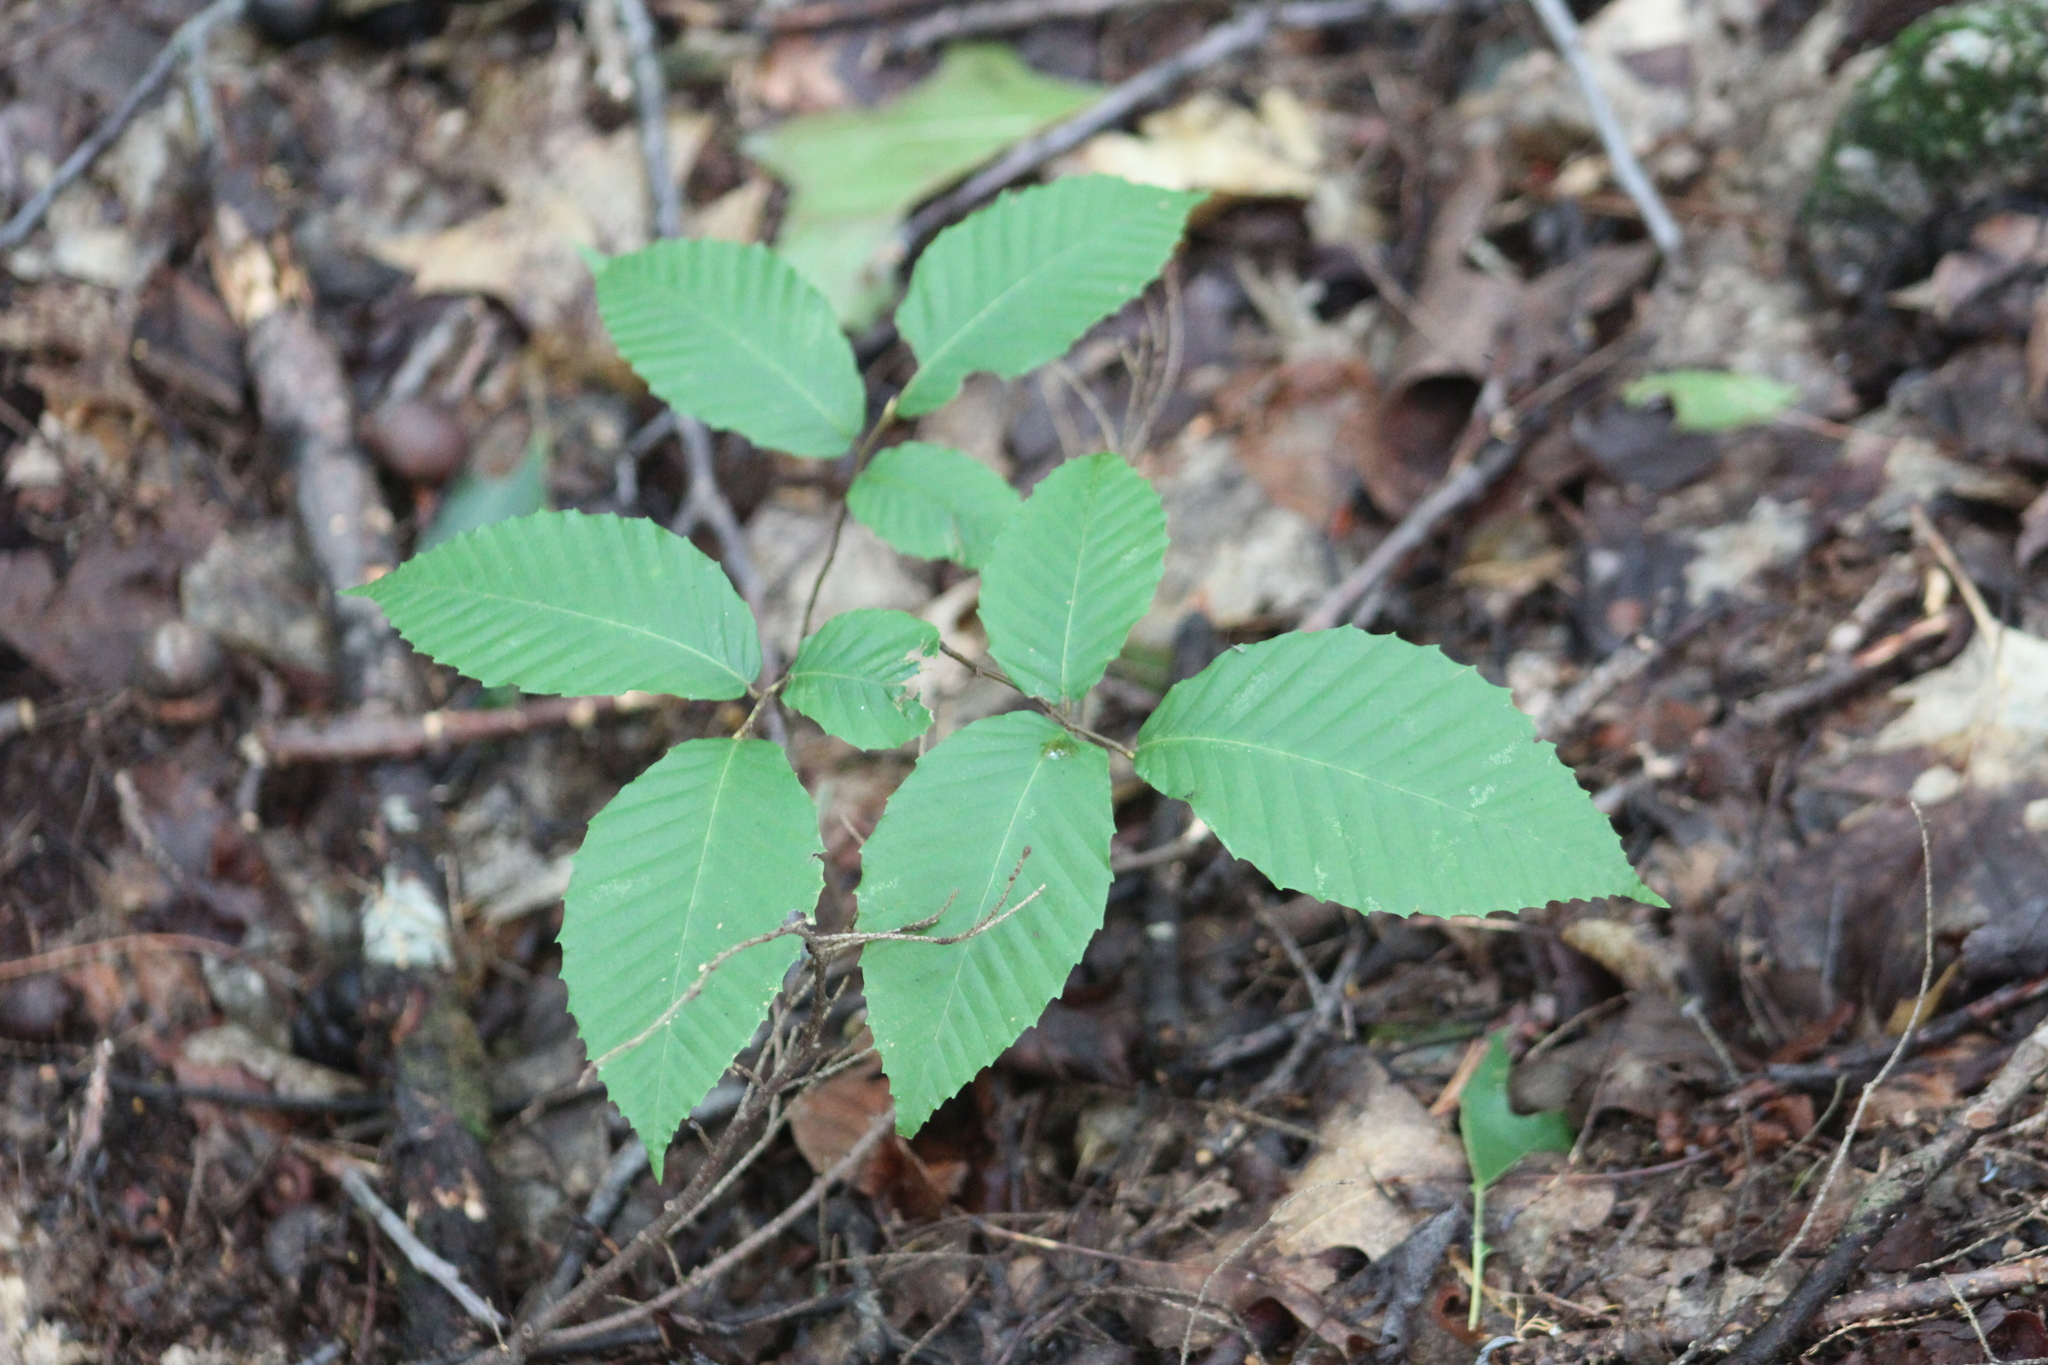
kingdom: Plantae
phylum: Tracheophyta
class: Magnoliopsida
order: Fagales
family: Fagaceae
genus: Fagus
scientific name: Fagus grandifolia
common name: American beech
